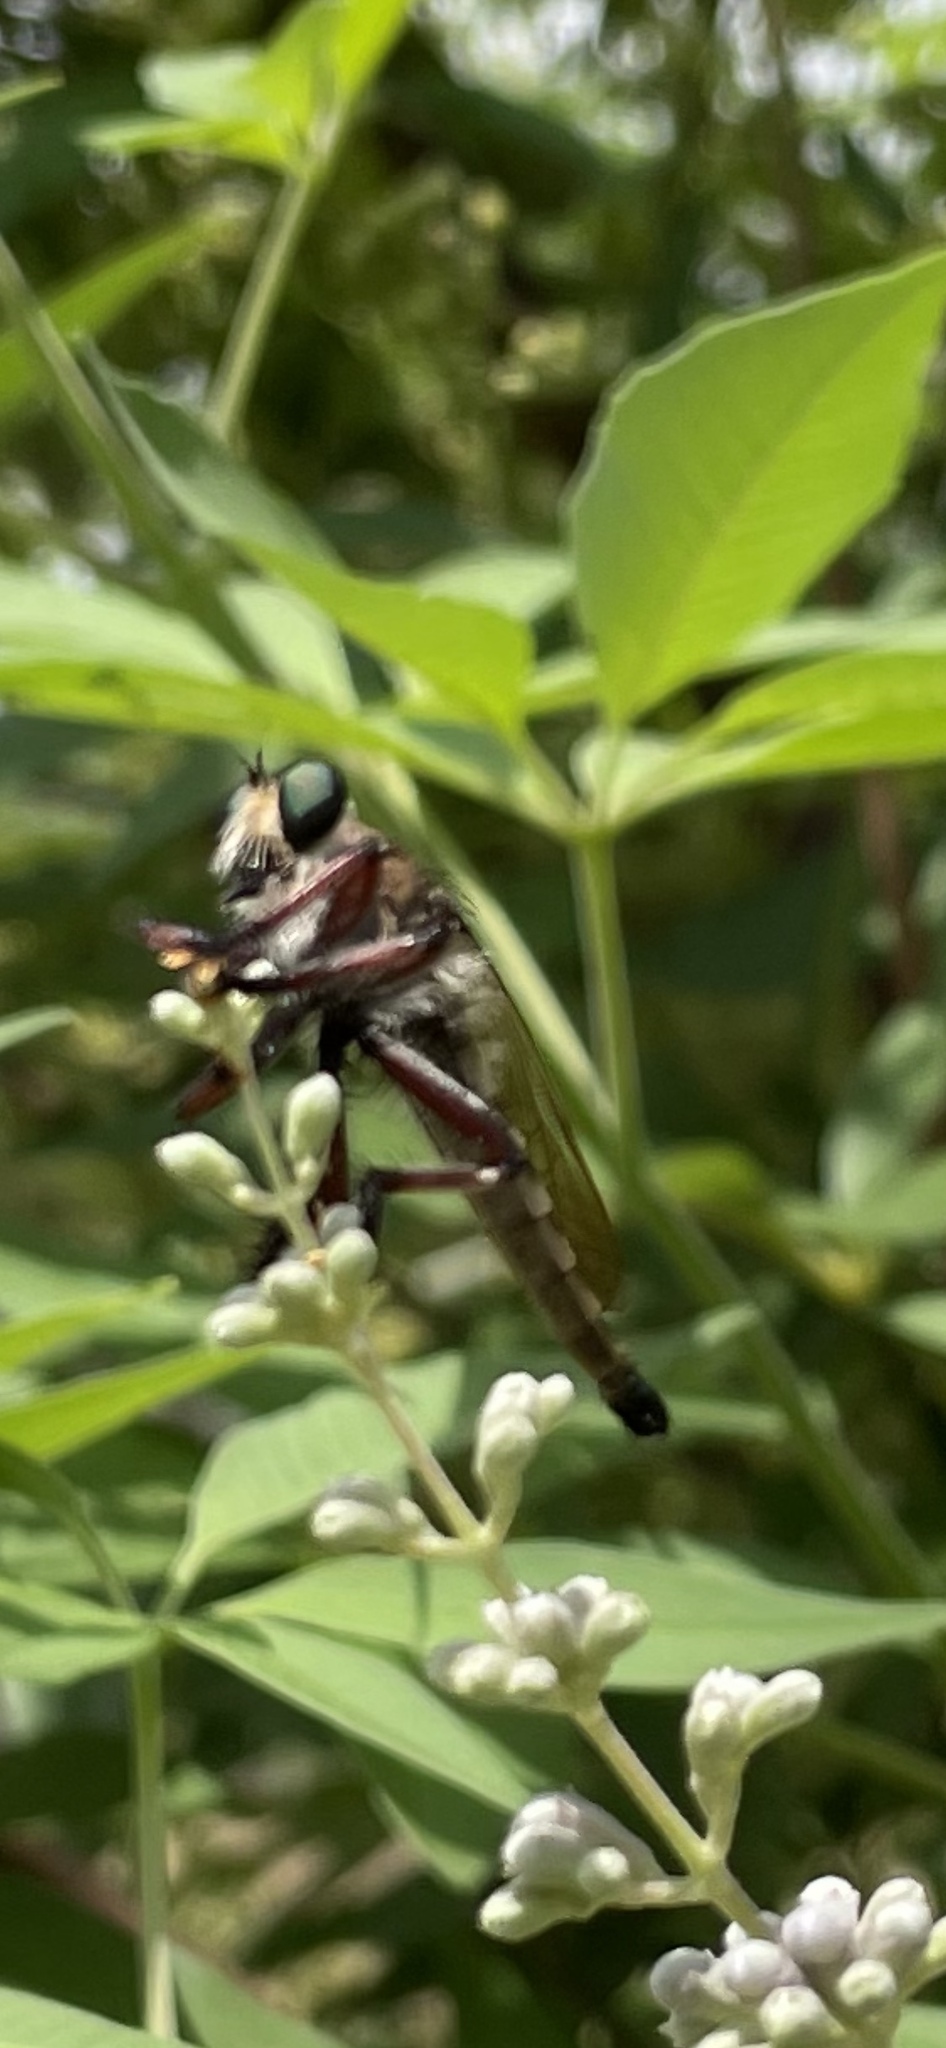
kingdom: Animalia
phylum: Arthropoda
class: Insecta
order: Diptera
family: Asilidae
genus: Promachus
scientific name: Promachus hinei
